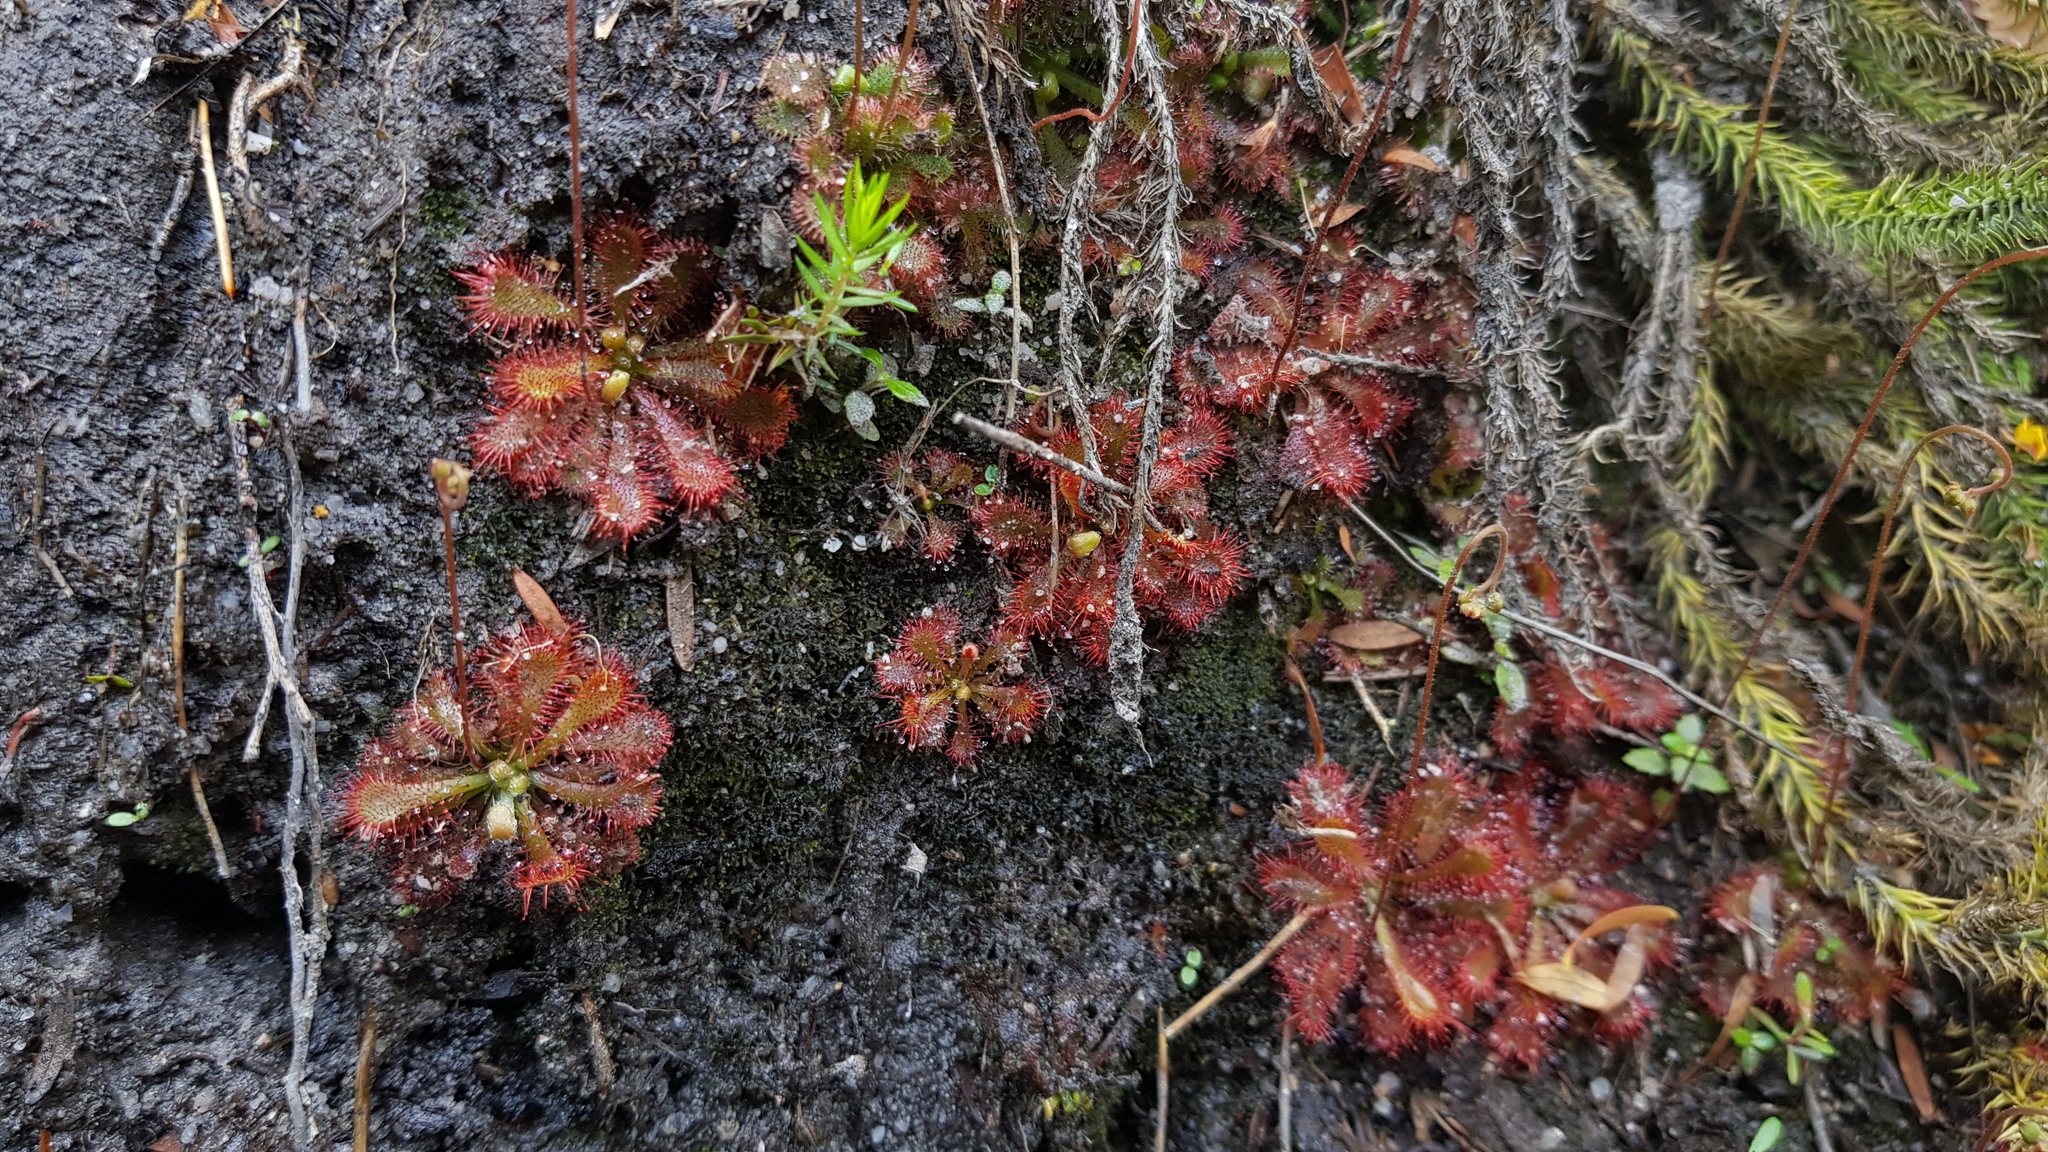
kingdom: Plantae
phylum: Tracheophyta
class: Magnoliopsida
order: Caryophyllales
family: Droseraceae
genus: Drosera
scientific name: Drosera spatulata
